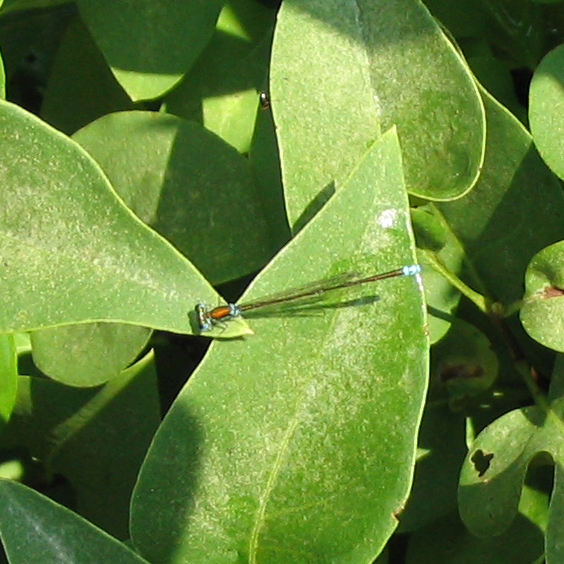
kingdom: Animalia
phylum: Arthropoda
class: Insecta
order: Odonata
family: Coenagrionidae
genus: Nehalennia
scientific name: Nehalennia irene
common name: Sedge sprite
